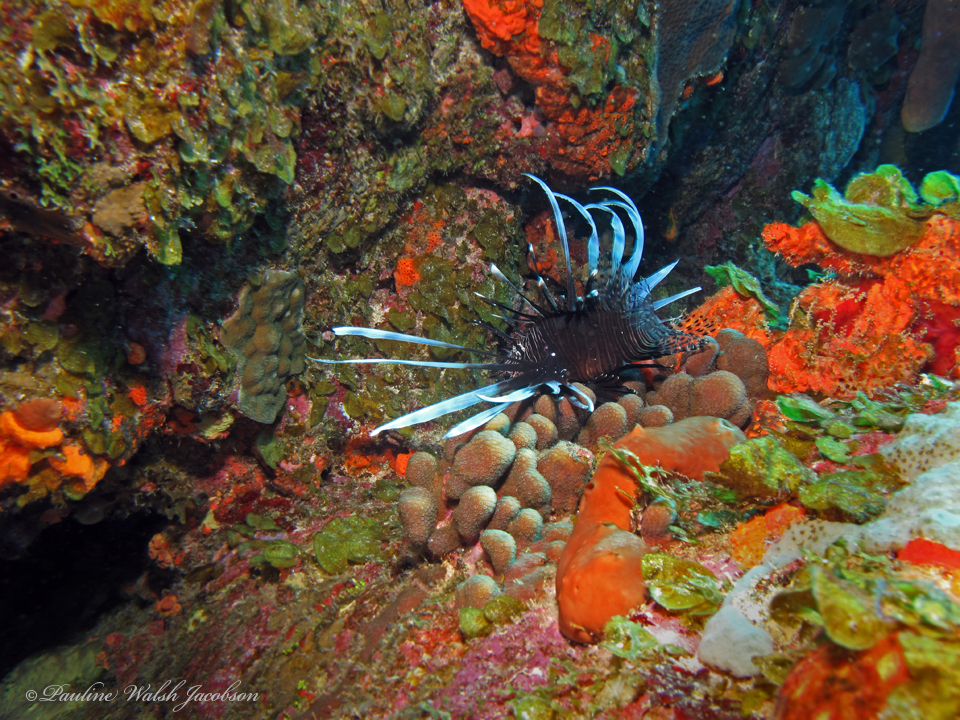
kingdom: Animalia
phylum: Chordata
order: Scorpaeniformes
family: Scorpaenidae
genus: Pterois
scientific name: Pterois volitans
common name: Lionfish
